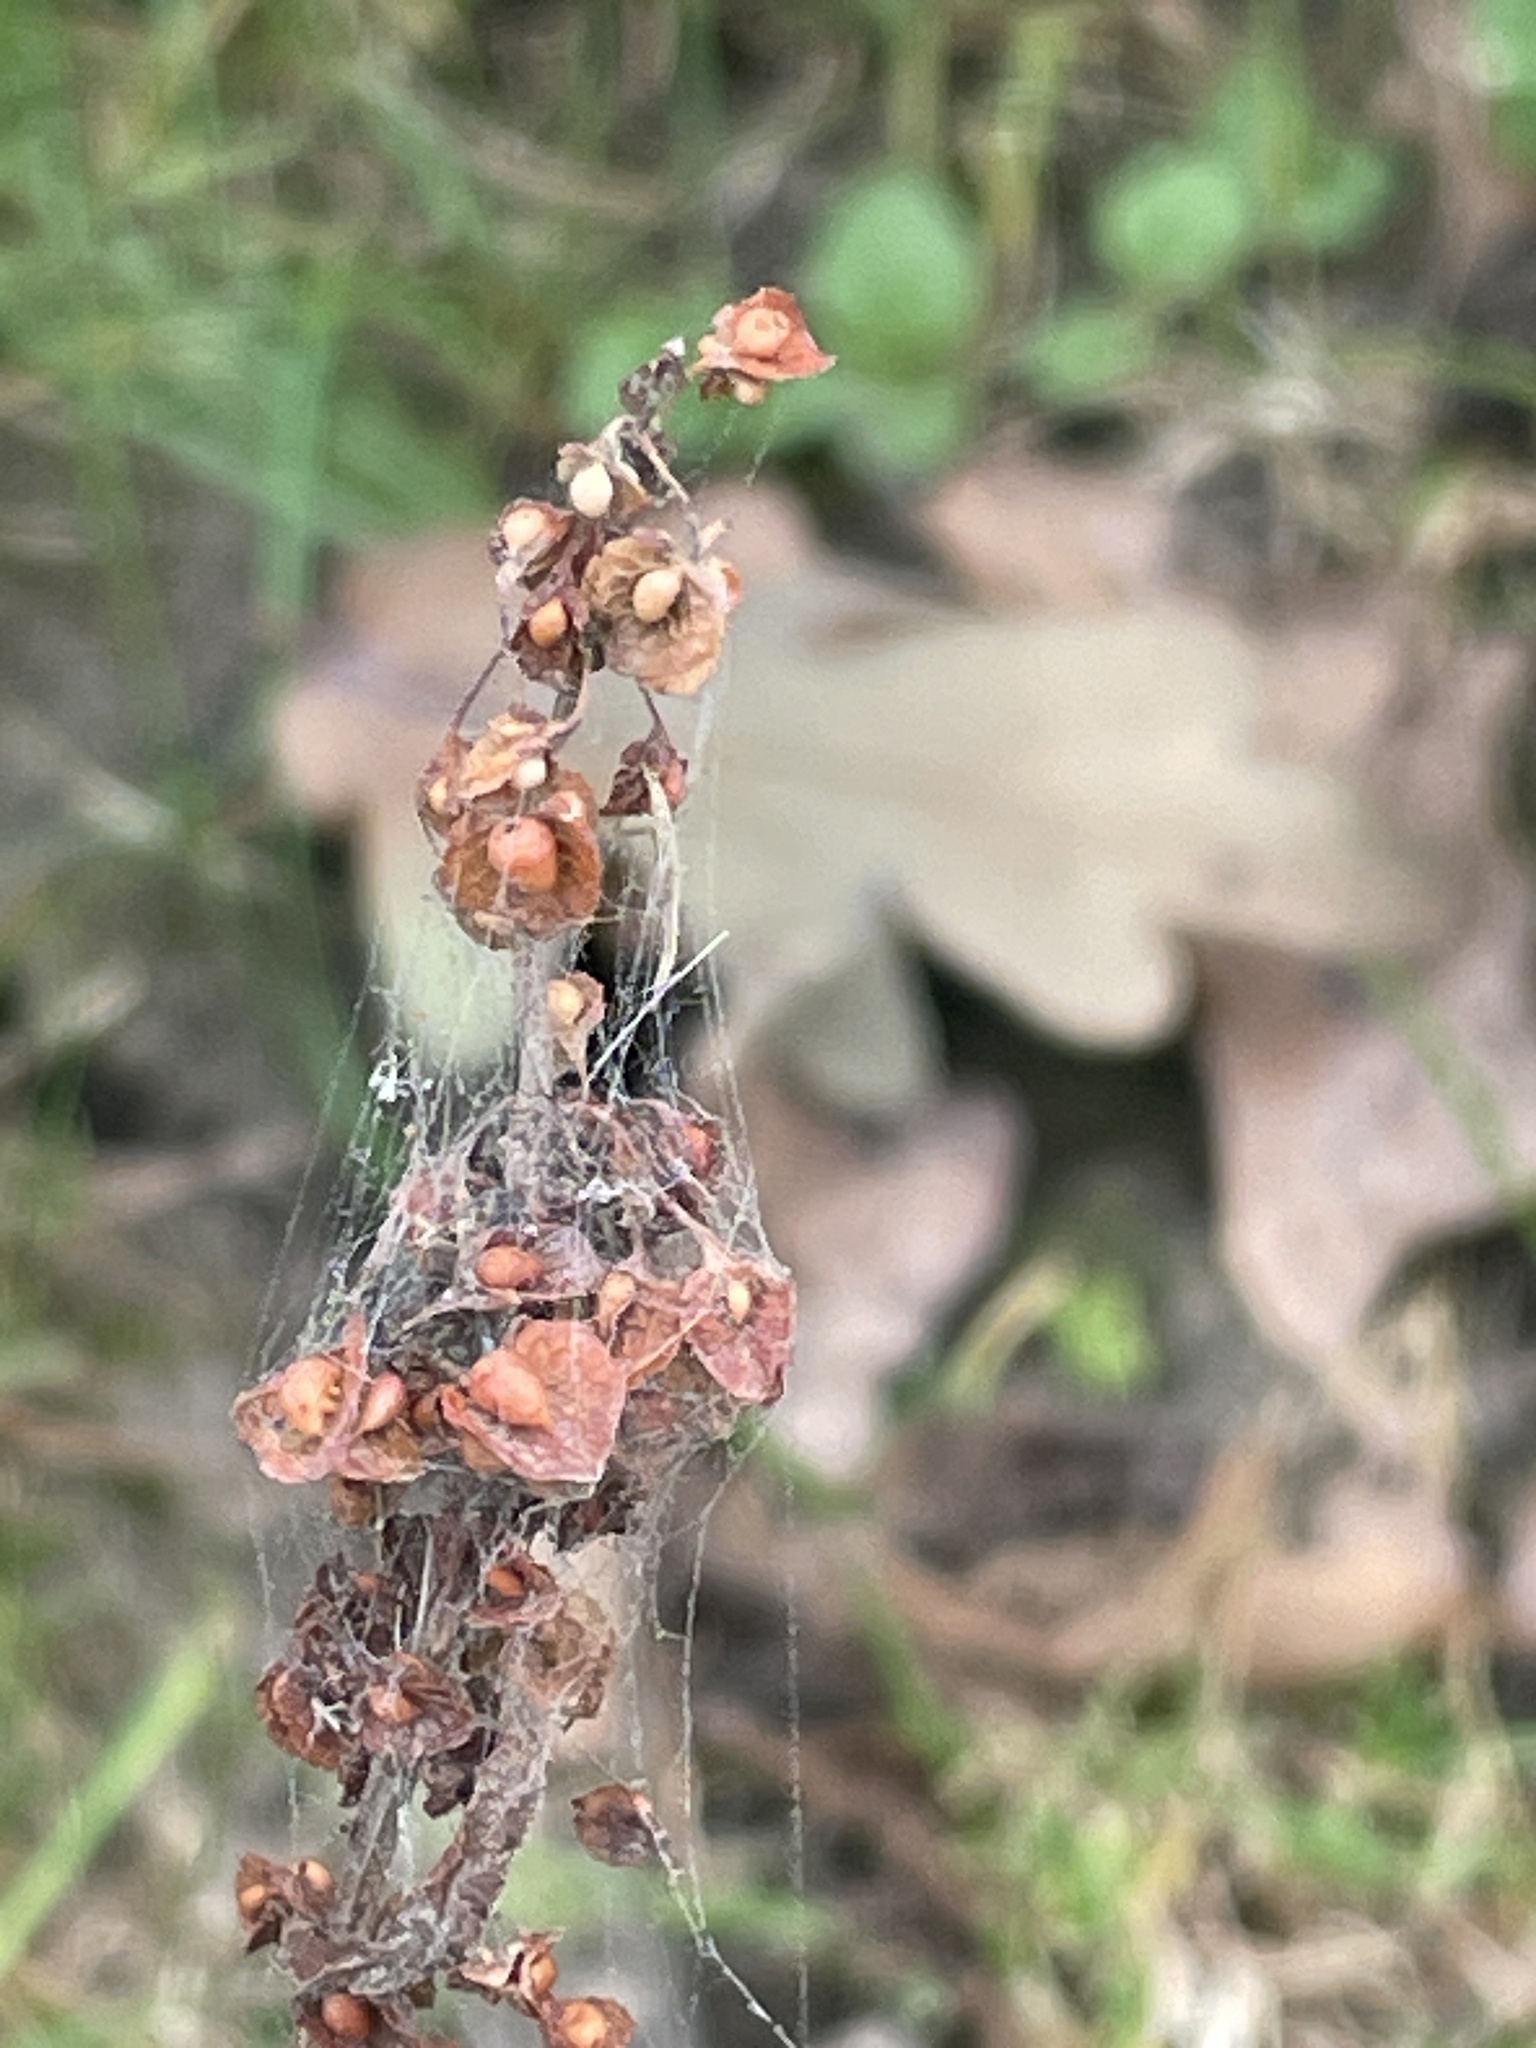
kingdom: Plantae
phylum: Tracheophyta
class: Magnoliopsida
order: Caryophyllales
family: Polygonaceae
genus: Rumex
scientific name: Rumex crispus
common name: Curled dock
